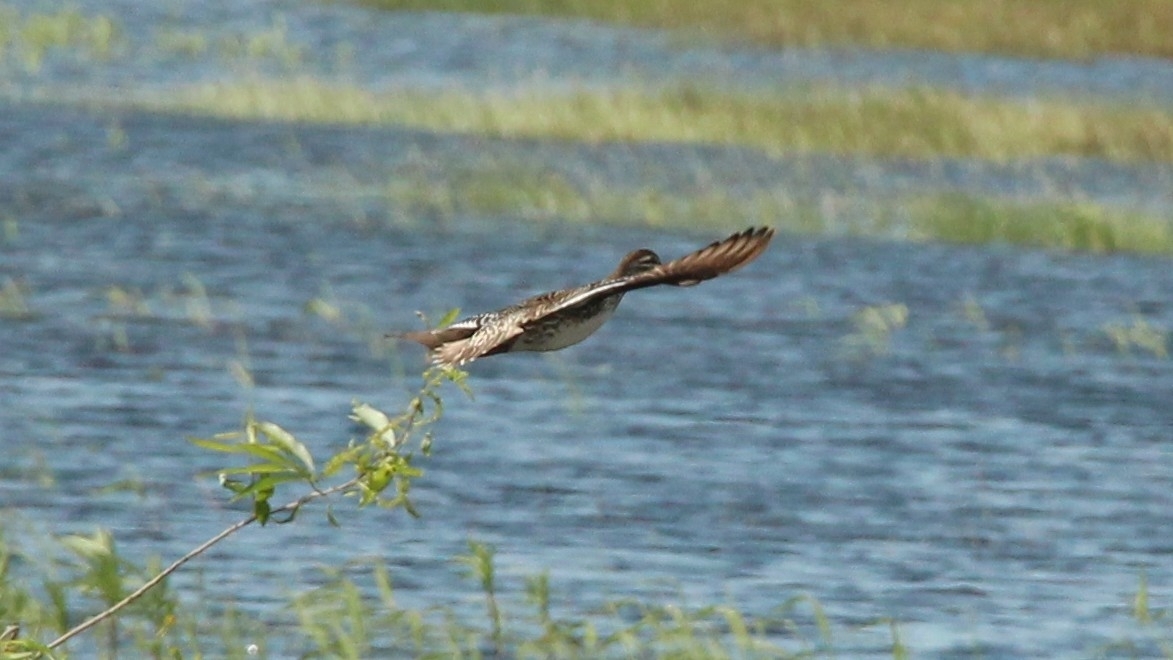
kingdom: Animalia
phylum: Chordata
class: Aves
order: Anseriformes
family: Anatidae
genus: Spatula
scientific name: Spatula querquedula
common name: Garganey
